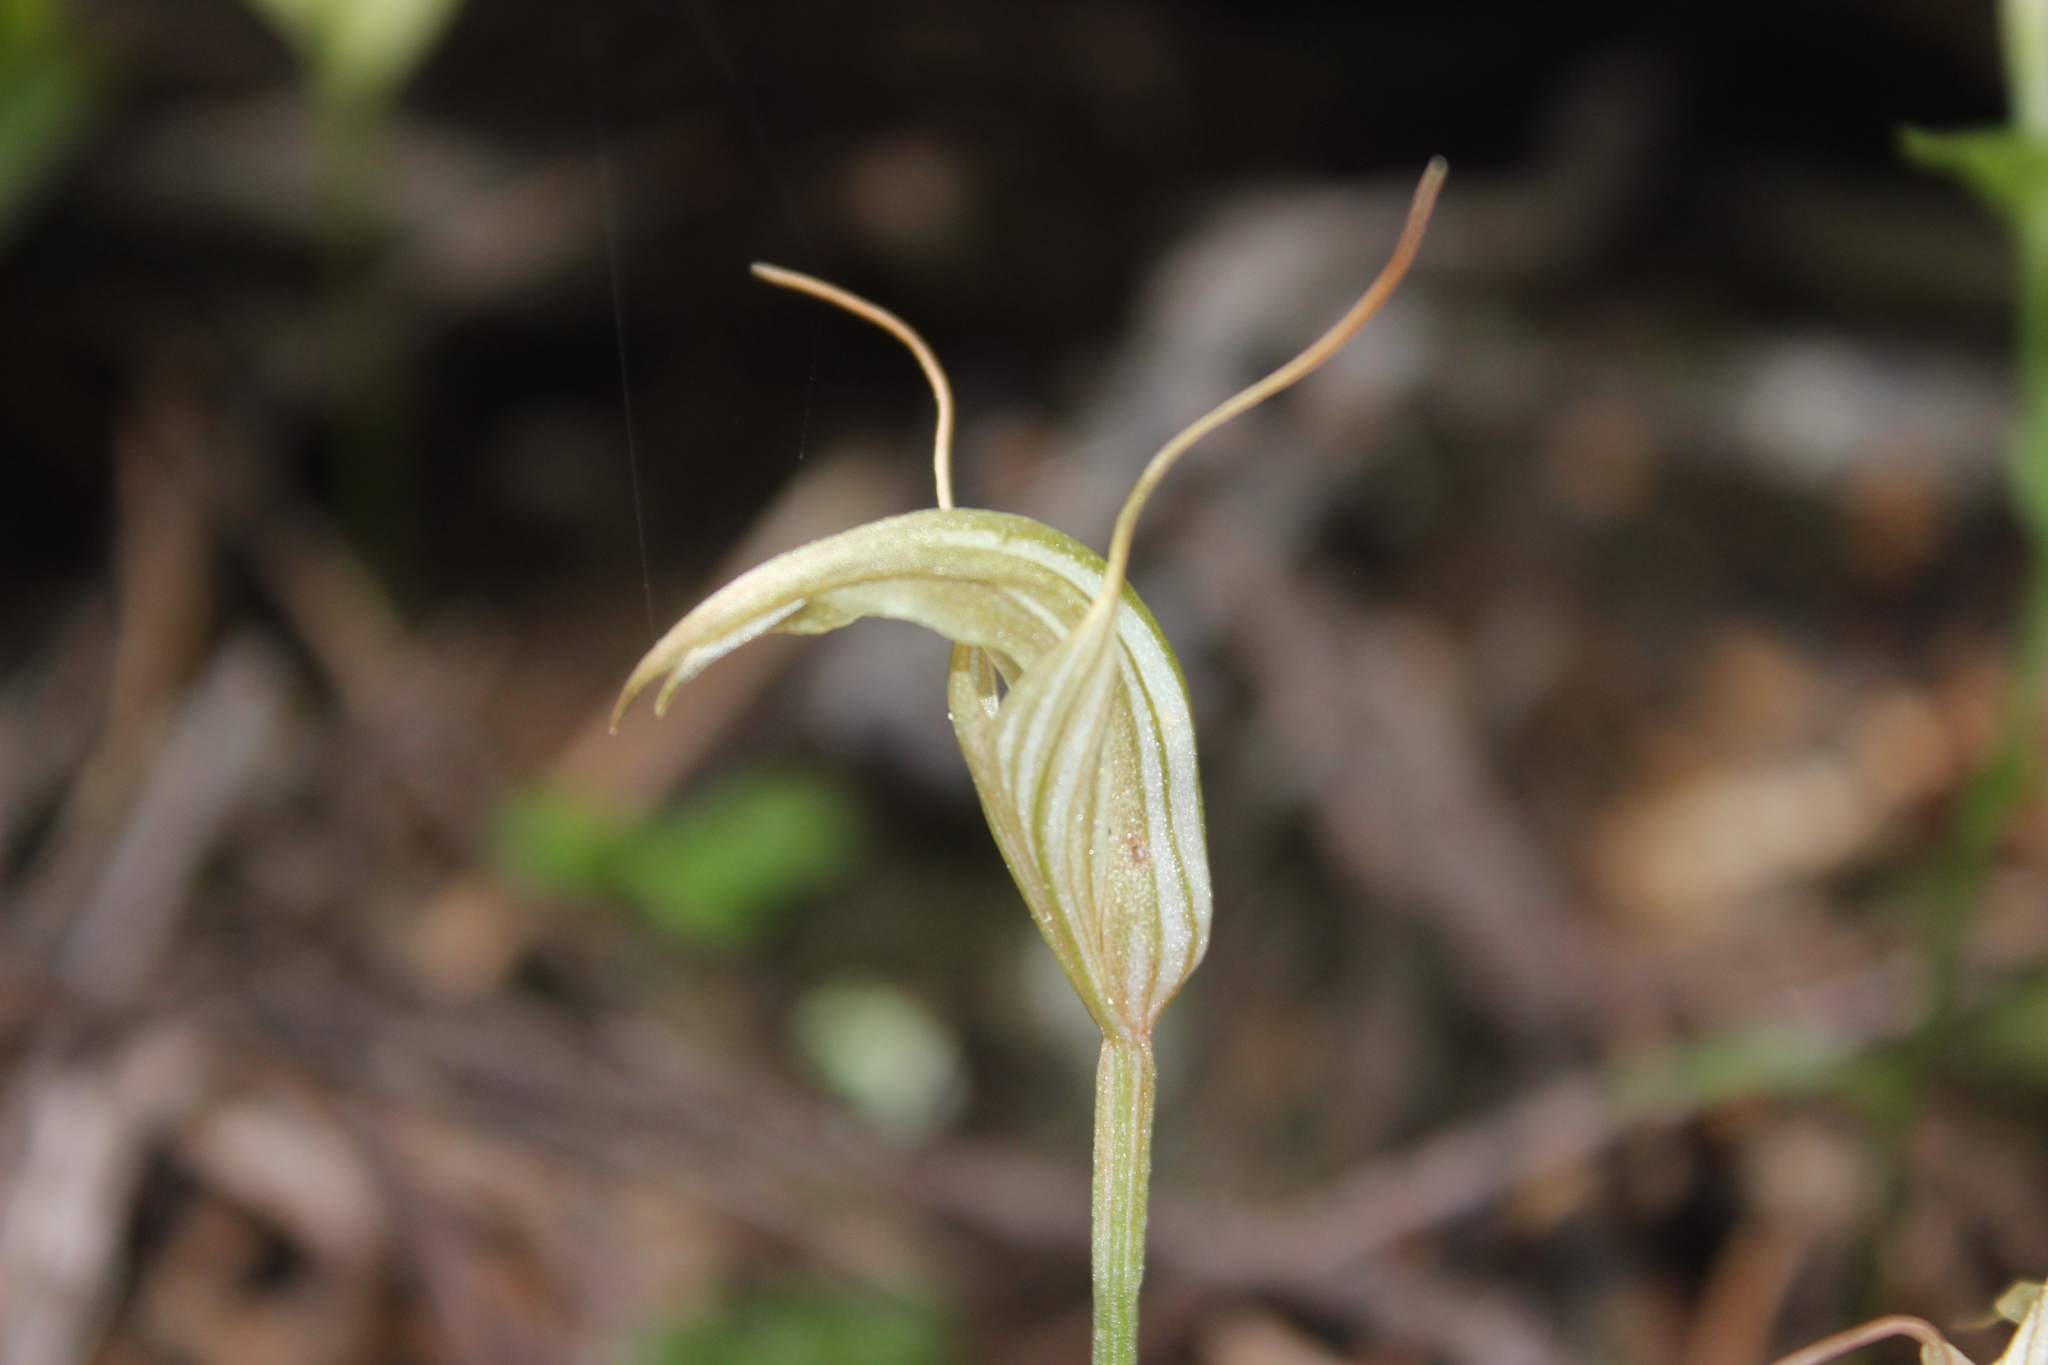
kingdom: Plantae
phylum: Tracheophyta
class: Liliopsida
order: Asparagales
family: Orchidaceae
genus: Pterostylis
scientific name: Pterostylis alobula
